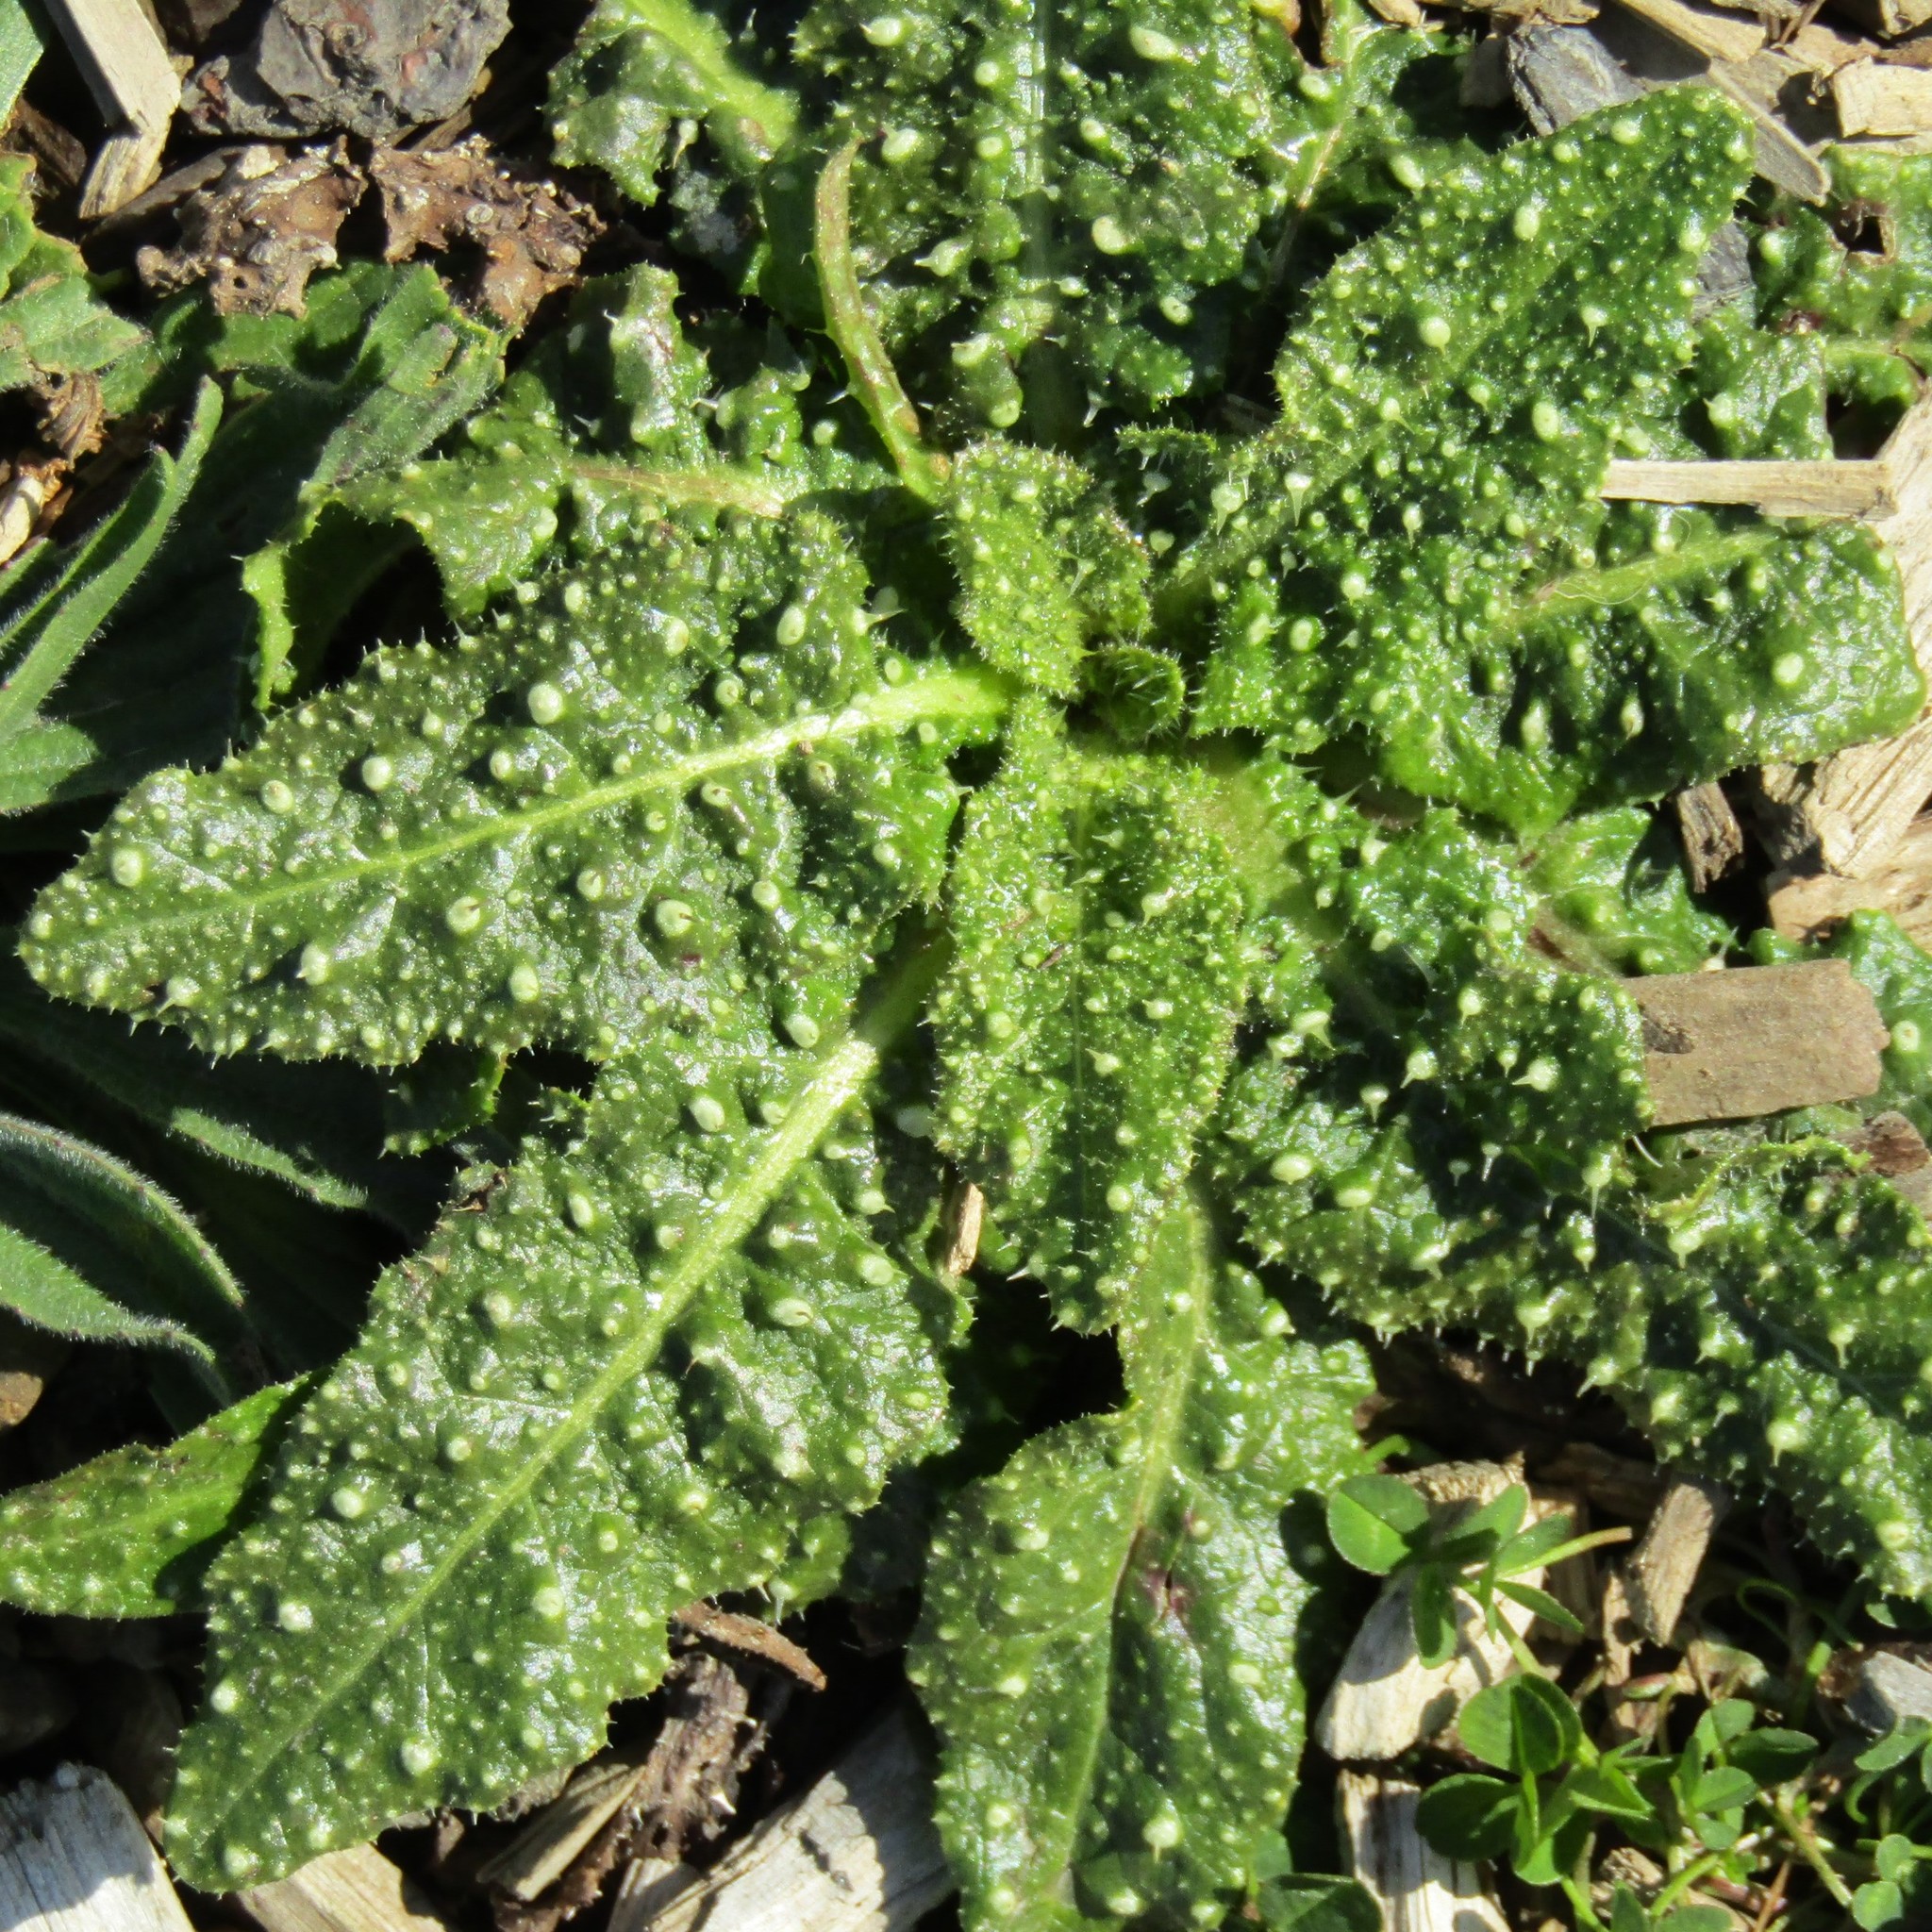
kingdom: Plantae
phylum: Tracheophyta
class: Magnoliopsida
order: Asterales
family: Asteraceae
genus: Helminthotheca
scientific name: Helminthotheca echioides
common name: Ox-tongue
